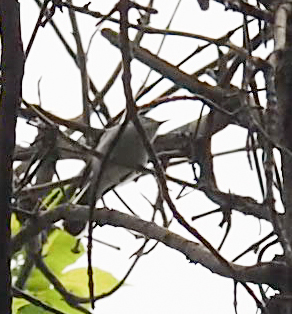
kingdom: Animalia
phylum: Chordata
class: Aves
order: Passeriformes
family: Polioptilidae
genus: Polioptila
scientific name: Polioptila caerulea
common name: Blue-gray gnatcatcher
